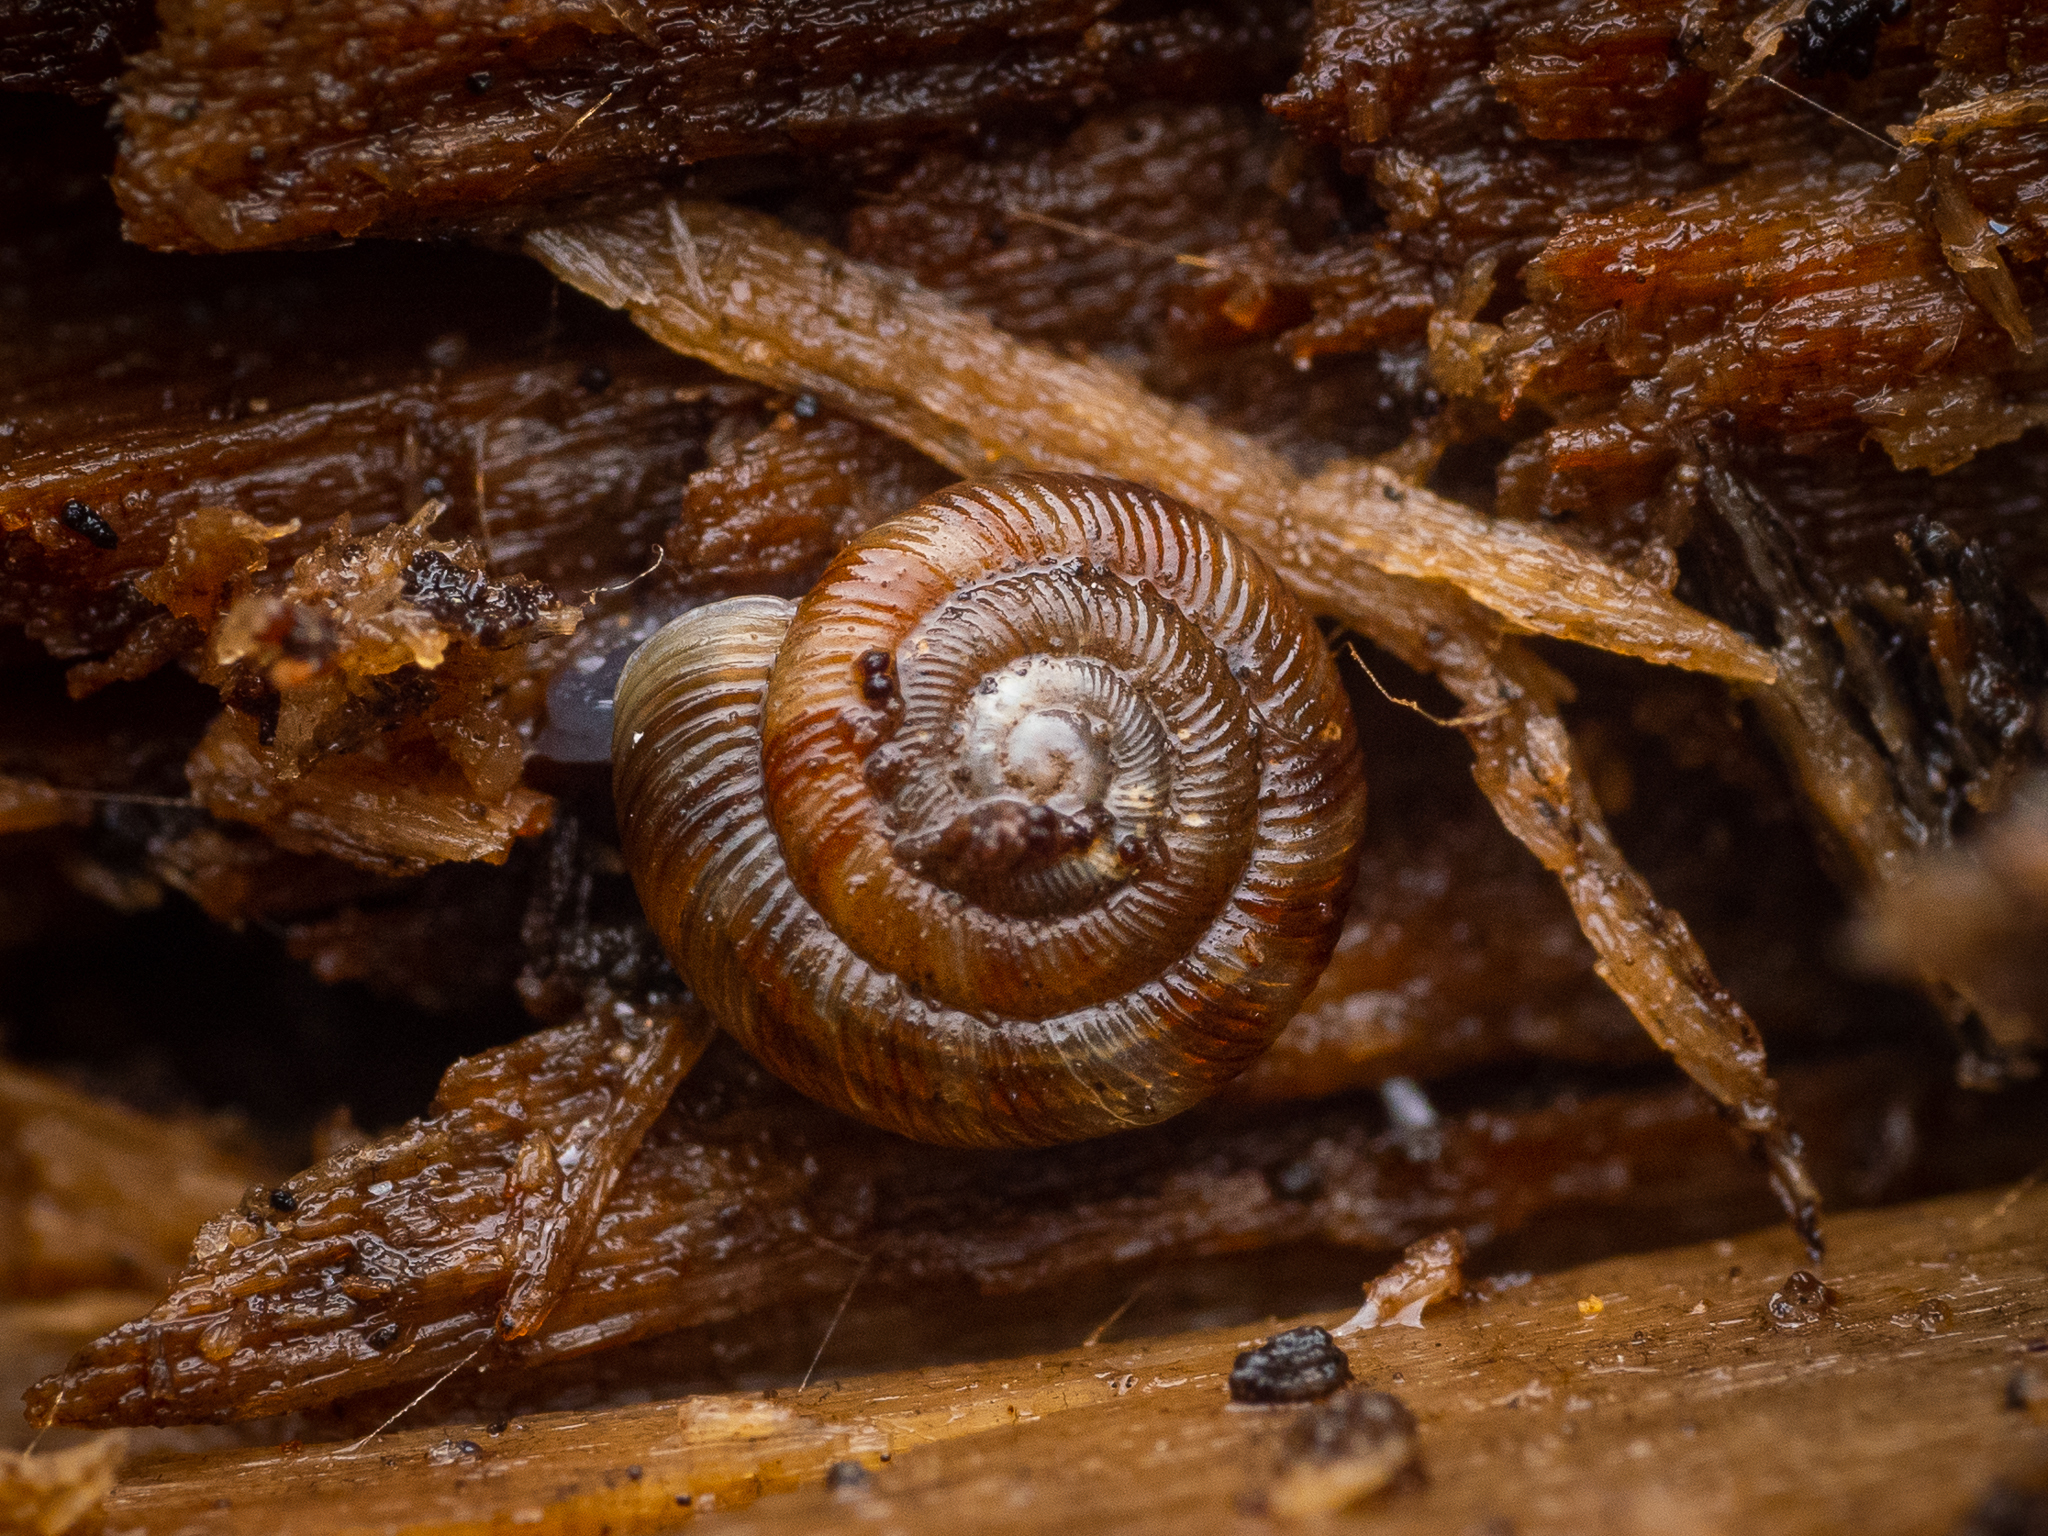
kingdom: Animalia
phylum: Mollusca
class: Gastropoda
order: Stylommatophora
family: Discidae
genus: Discus
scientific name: Discus rotundatus
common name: Rounded snail
